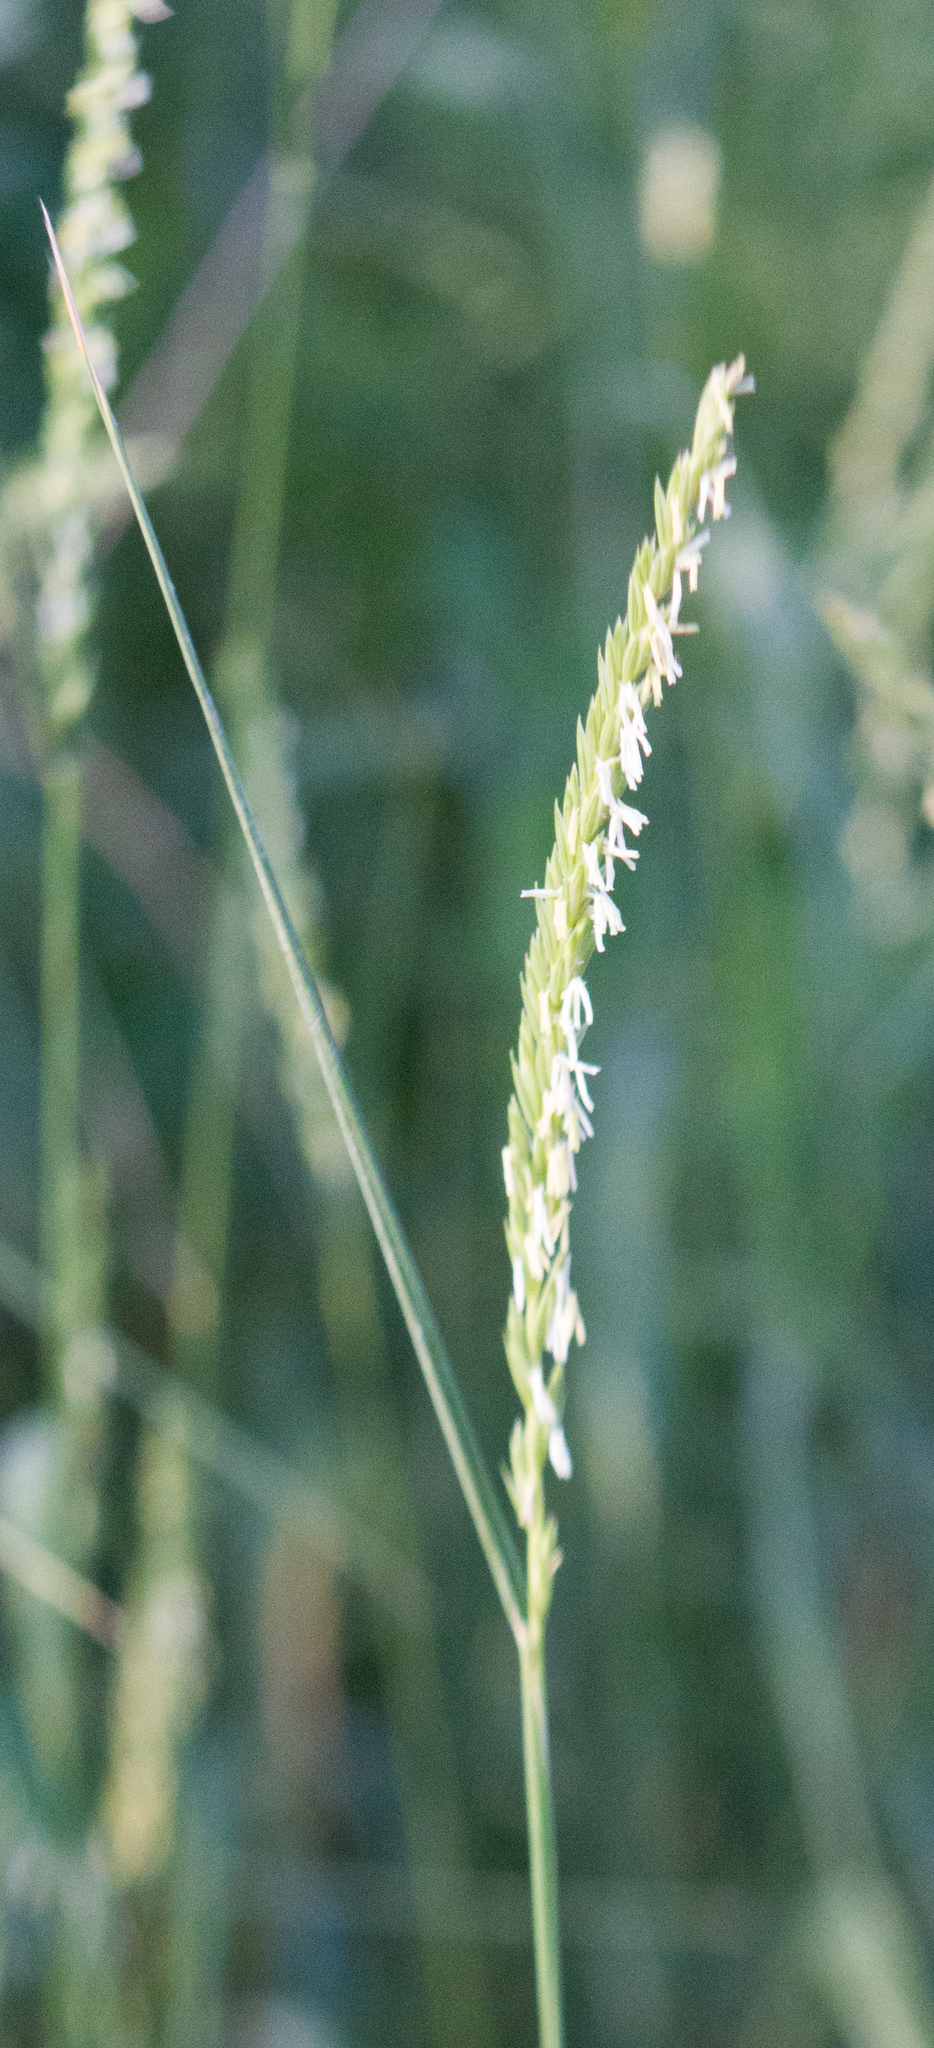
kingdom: Plantae
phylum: Tracheophyta
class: Liliopsida
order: Poales
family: Poaceae
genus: Elymus
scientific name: Elymus repens
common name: Quackgrass
